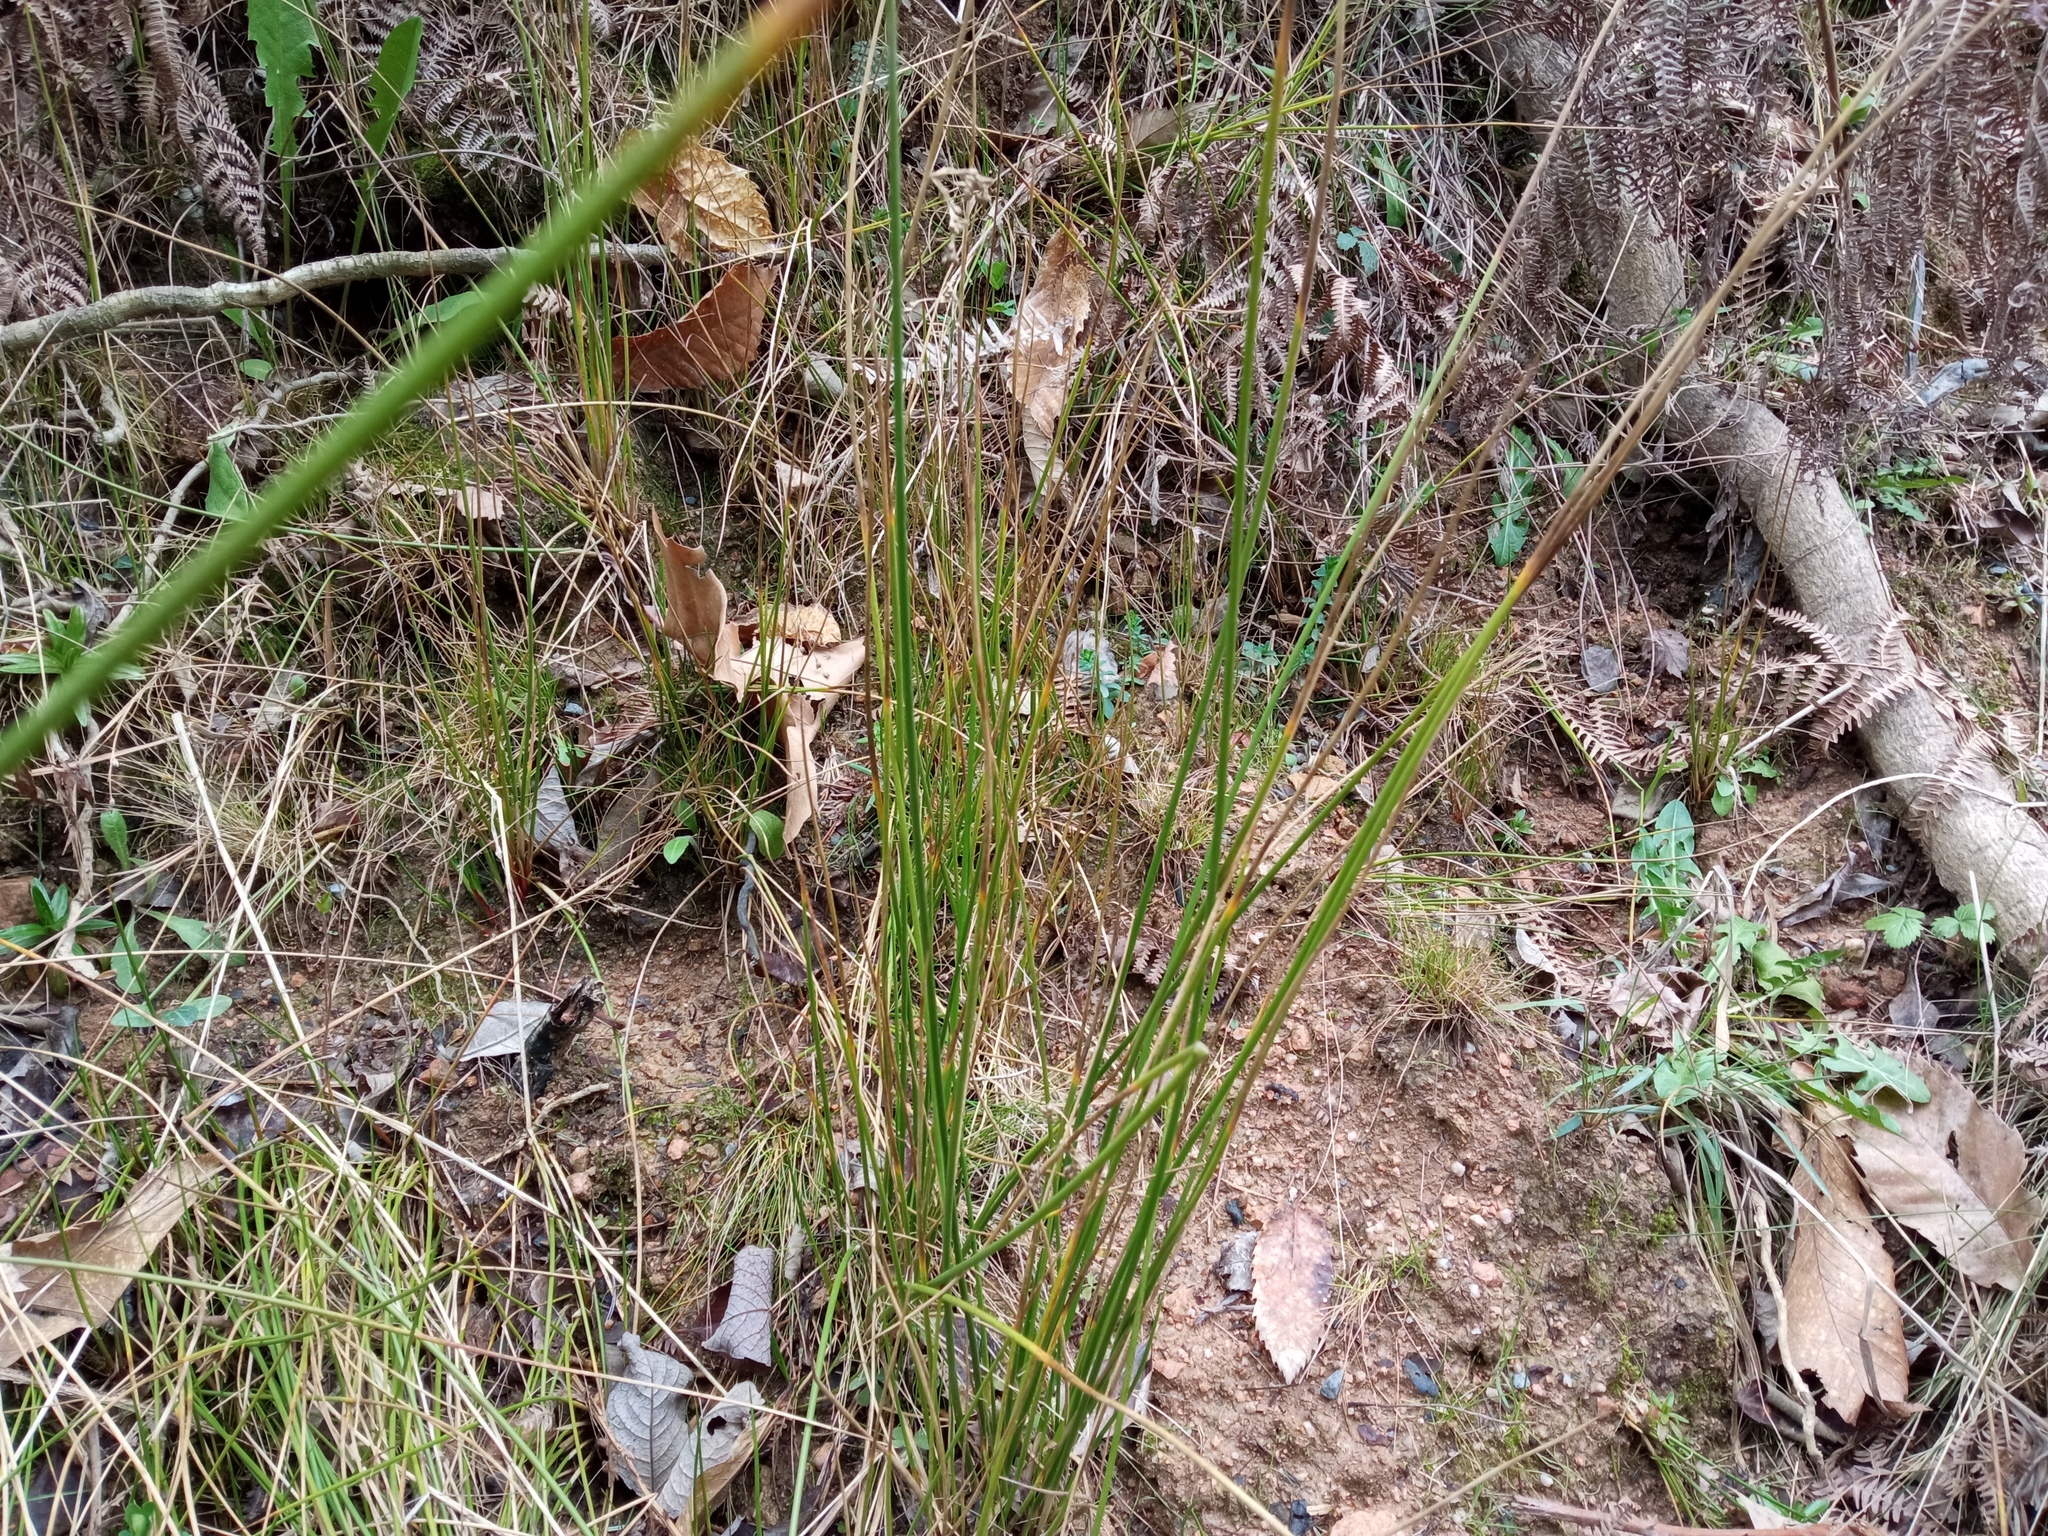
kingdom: Plantae
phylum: Tracheophyta
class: Liliopsida
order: Poales
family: Juncaceae
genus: Juncus
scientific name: Juncus effusus
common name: Soft rush
